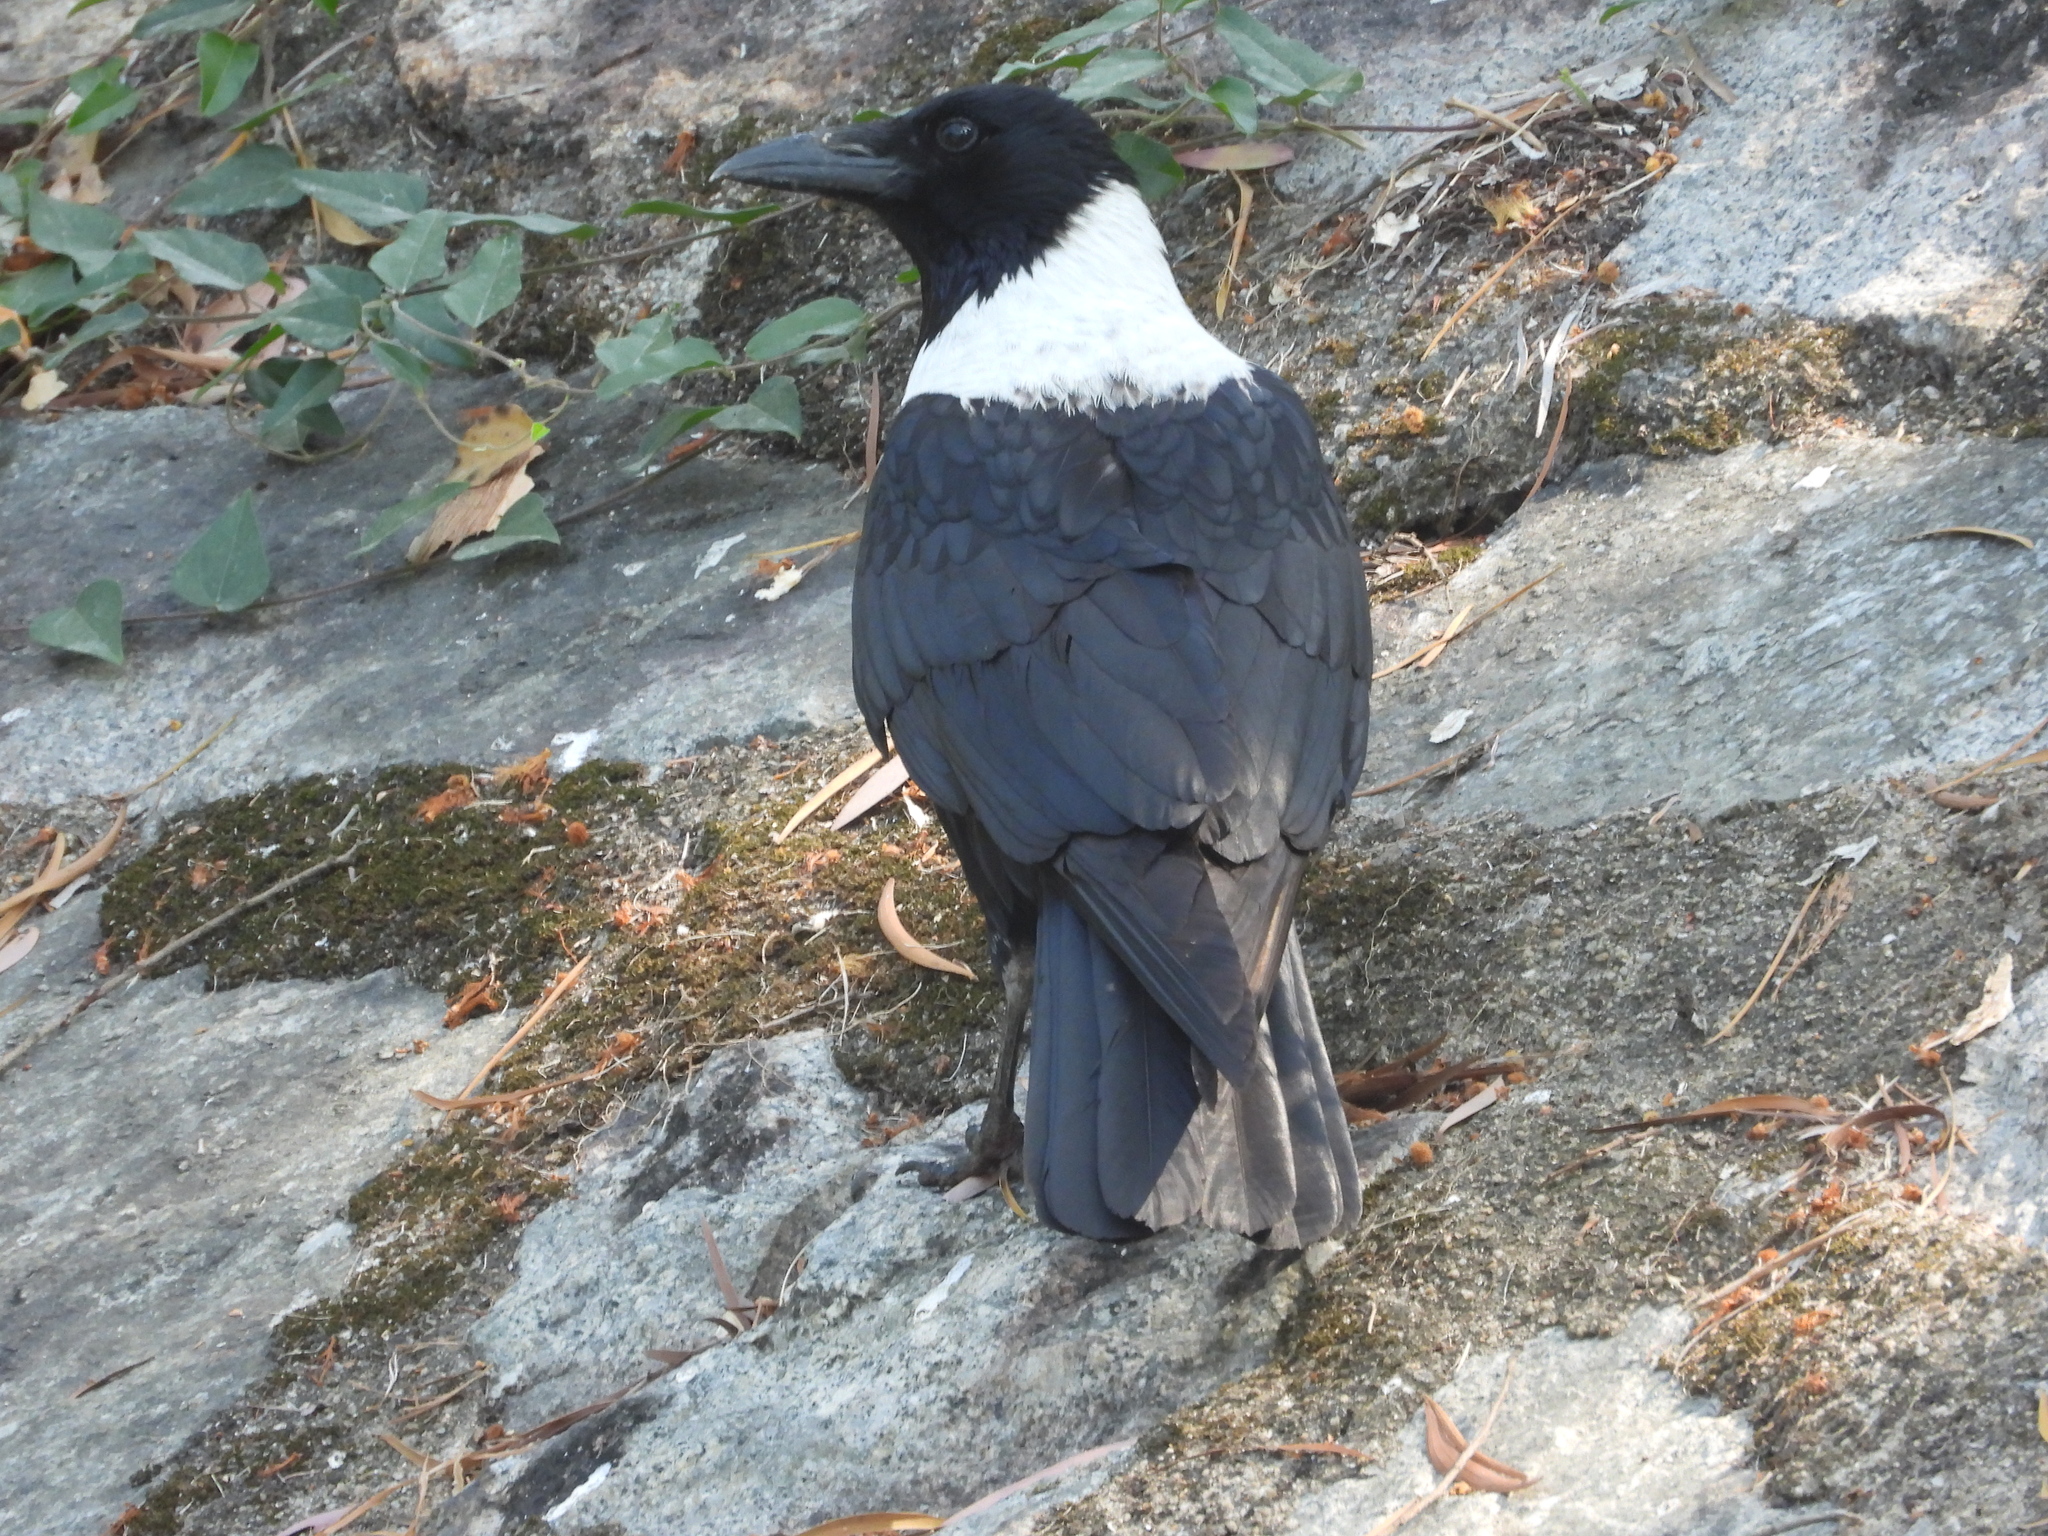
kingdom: Animalia
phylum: Chordata
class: Aves
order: Passeriformes
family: Corvidae
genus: Corvus
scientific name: Corvus pectoralis
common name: Collared crow
